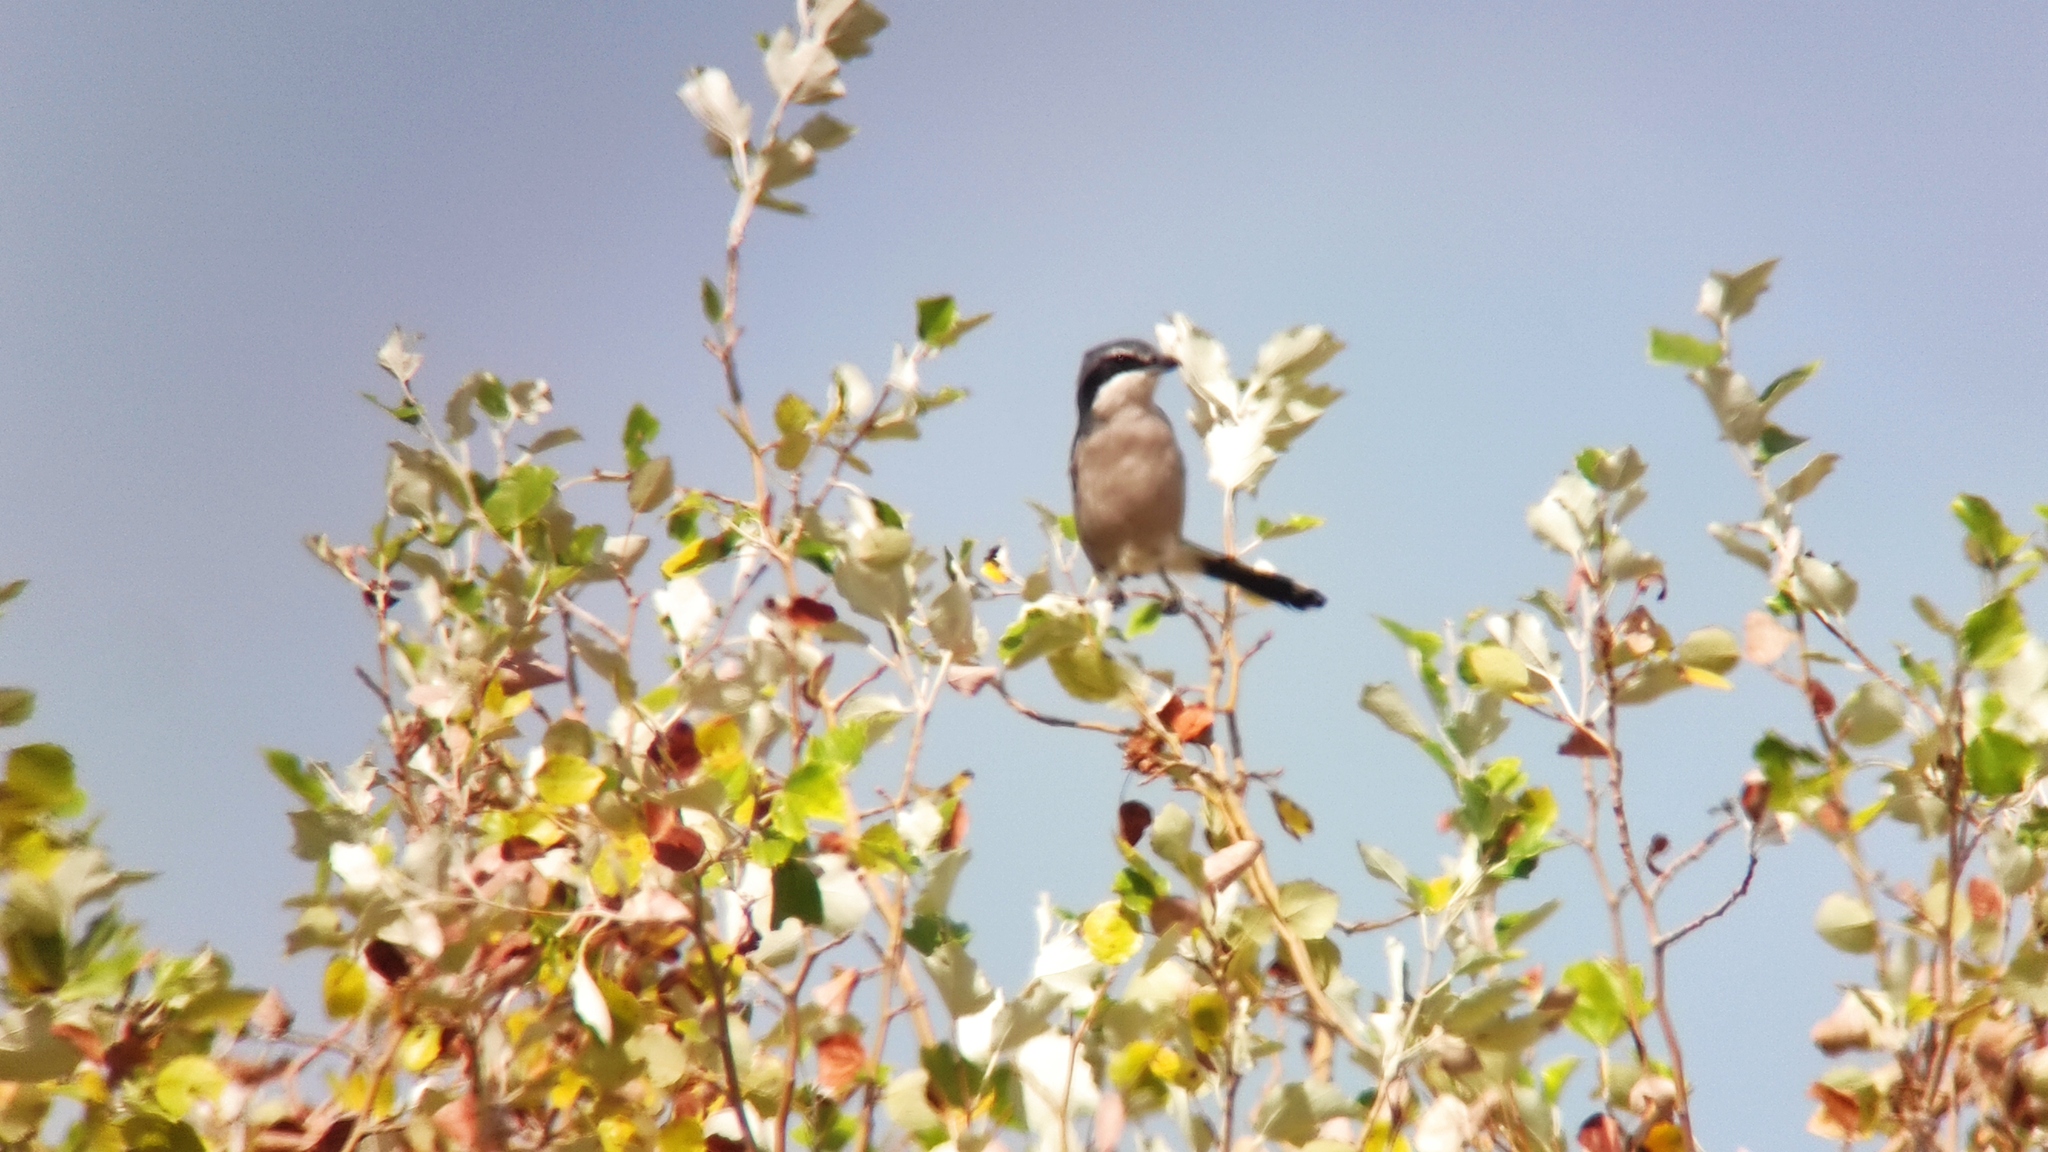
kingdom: Animalia
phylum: Chordata
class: Aves
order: Passeriformes
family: Laniidae
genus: Lanius
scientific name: Lanius meridionalis
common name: Iberian grey shrike
